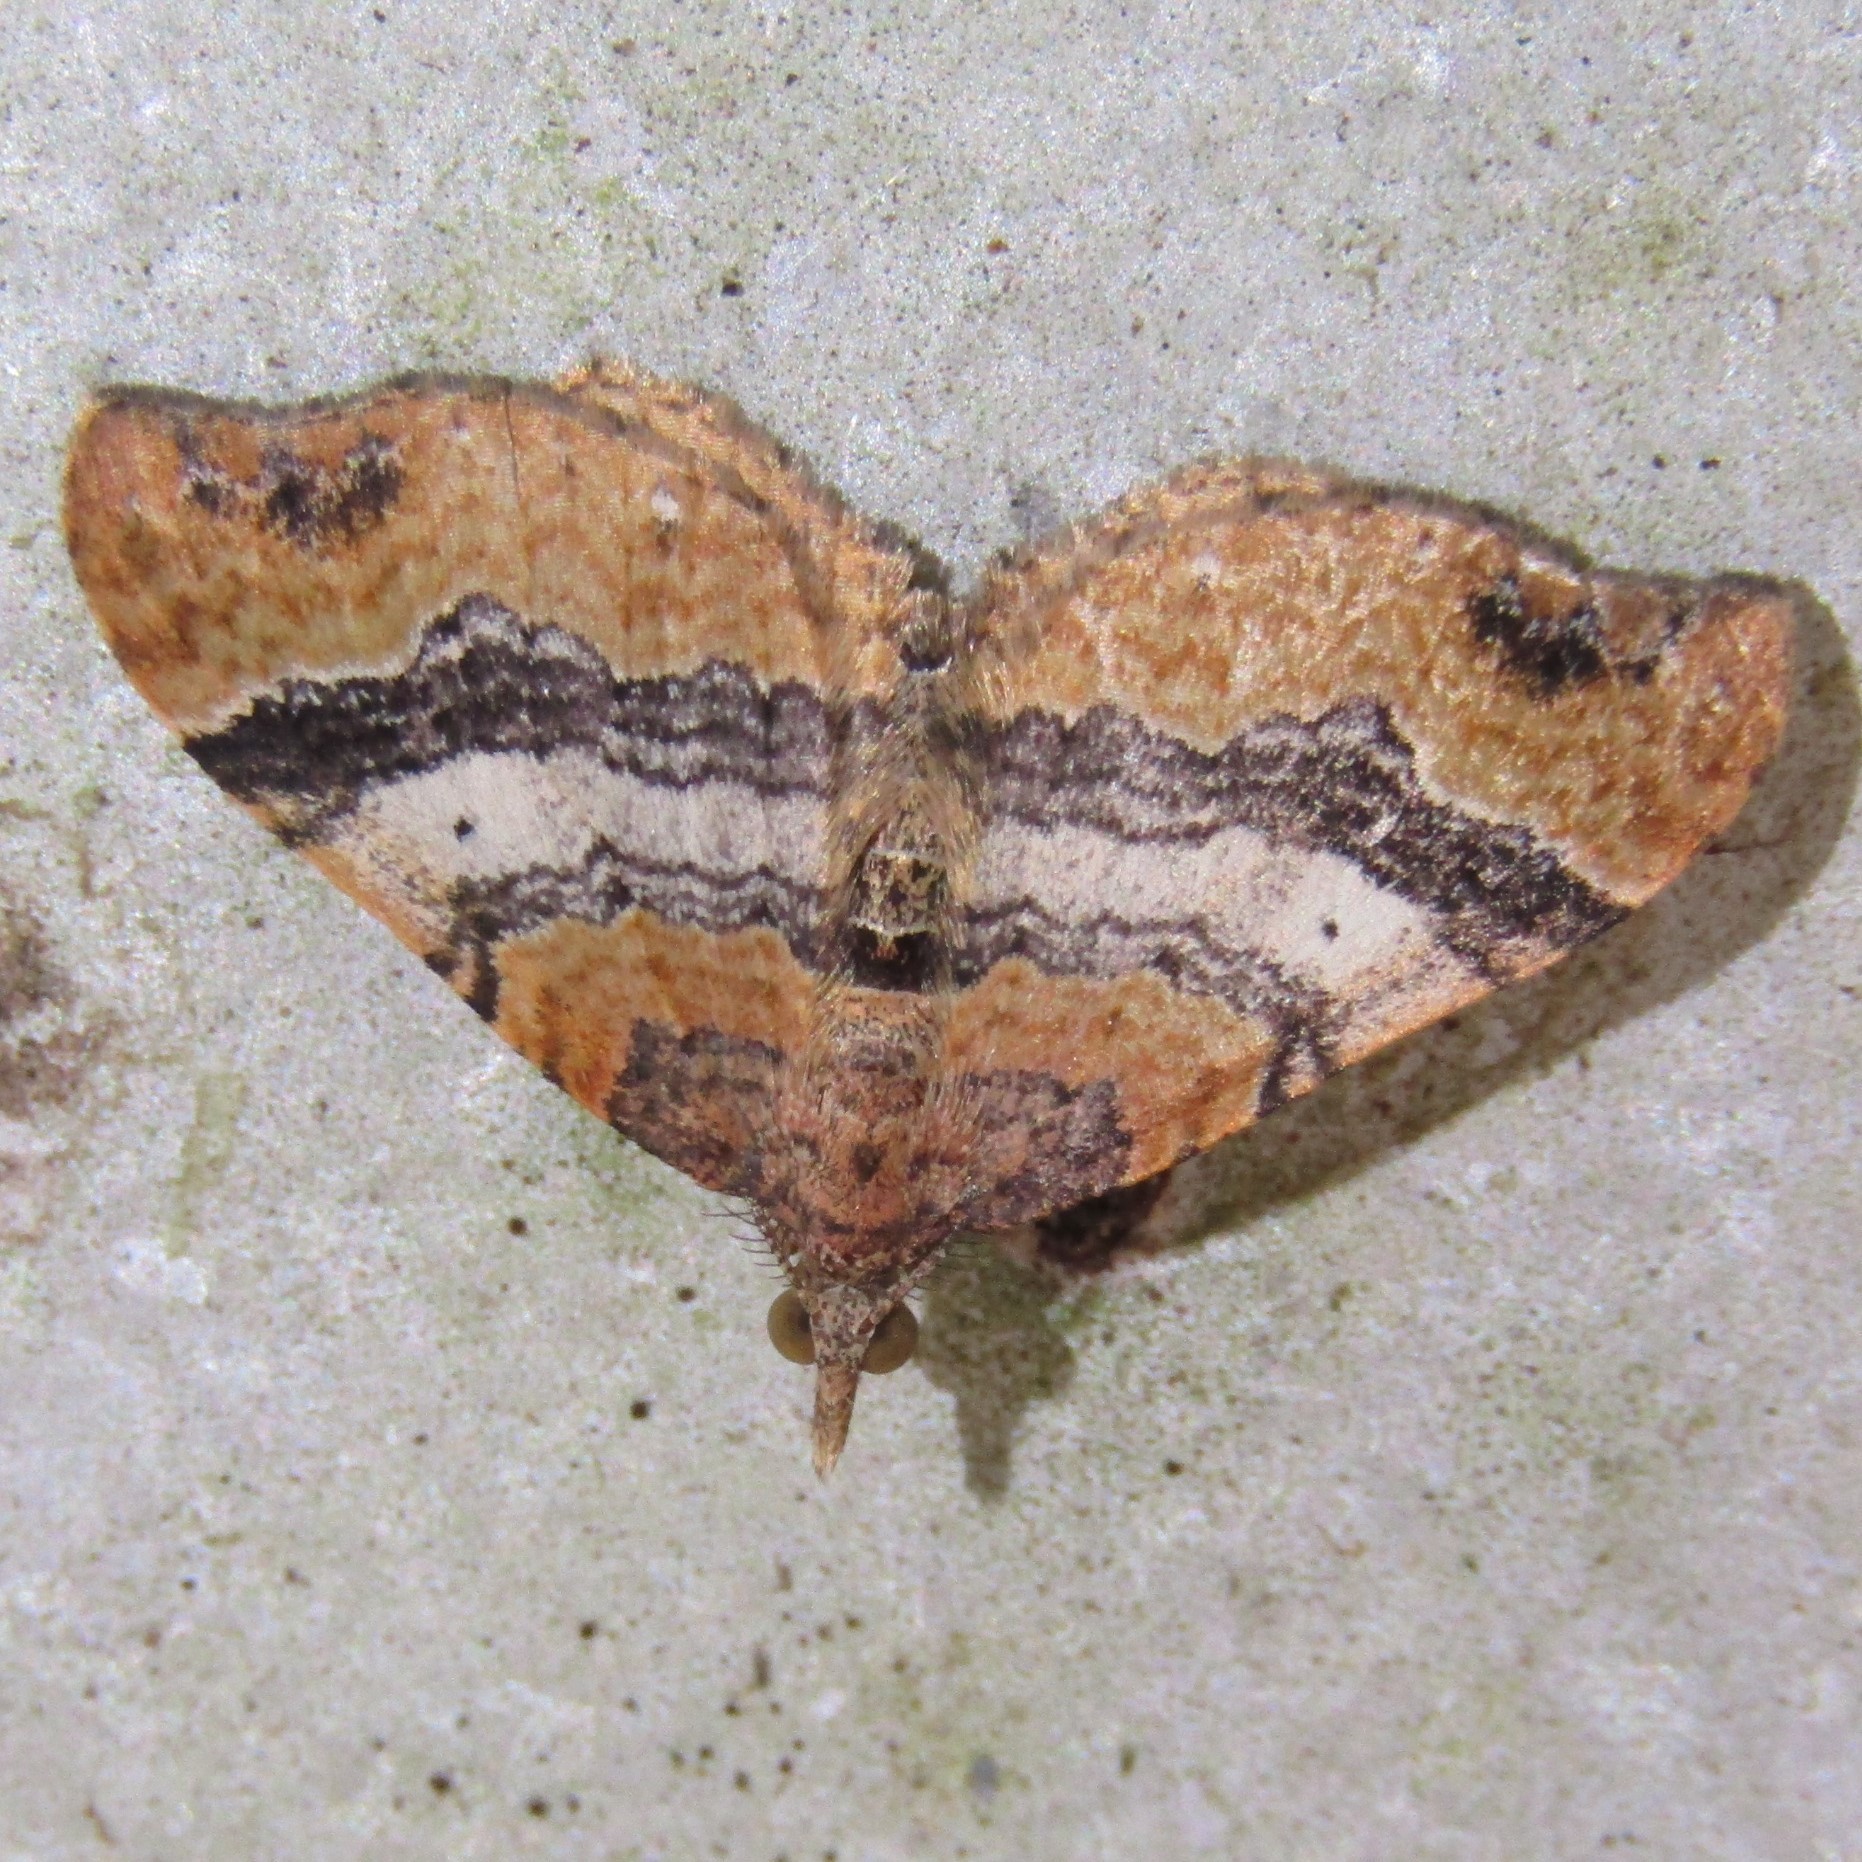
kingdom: Animalia
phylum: Arthropoda
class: Insecta
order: Lepidoptera
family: Geometridae
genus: Homodotis
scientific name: Homodotis megaspilata
